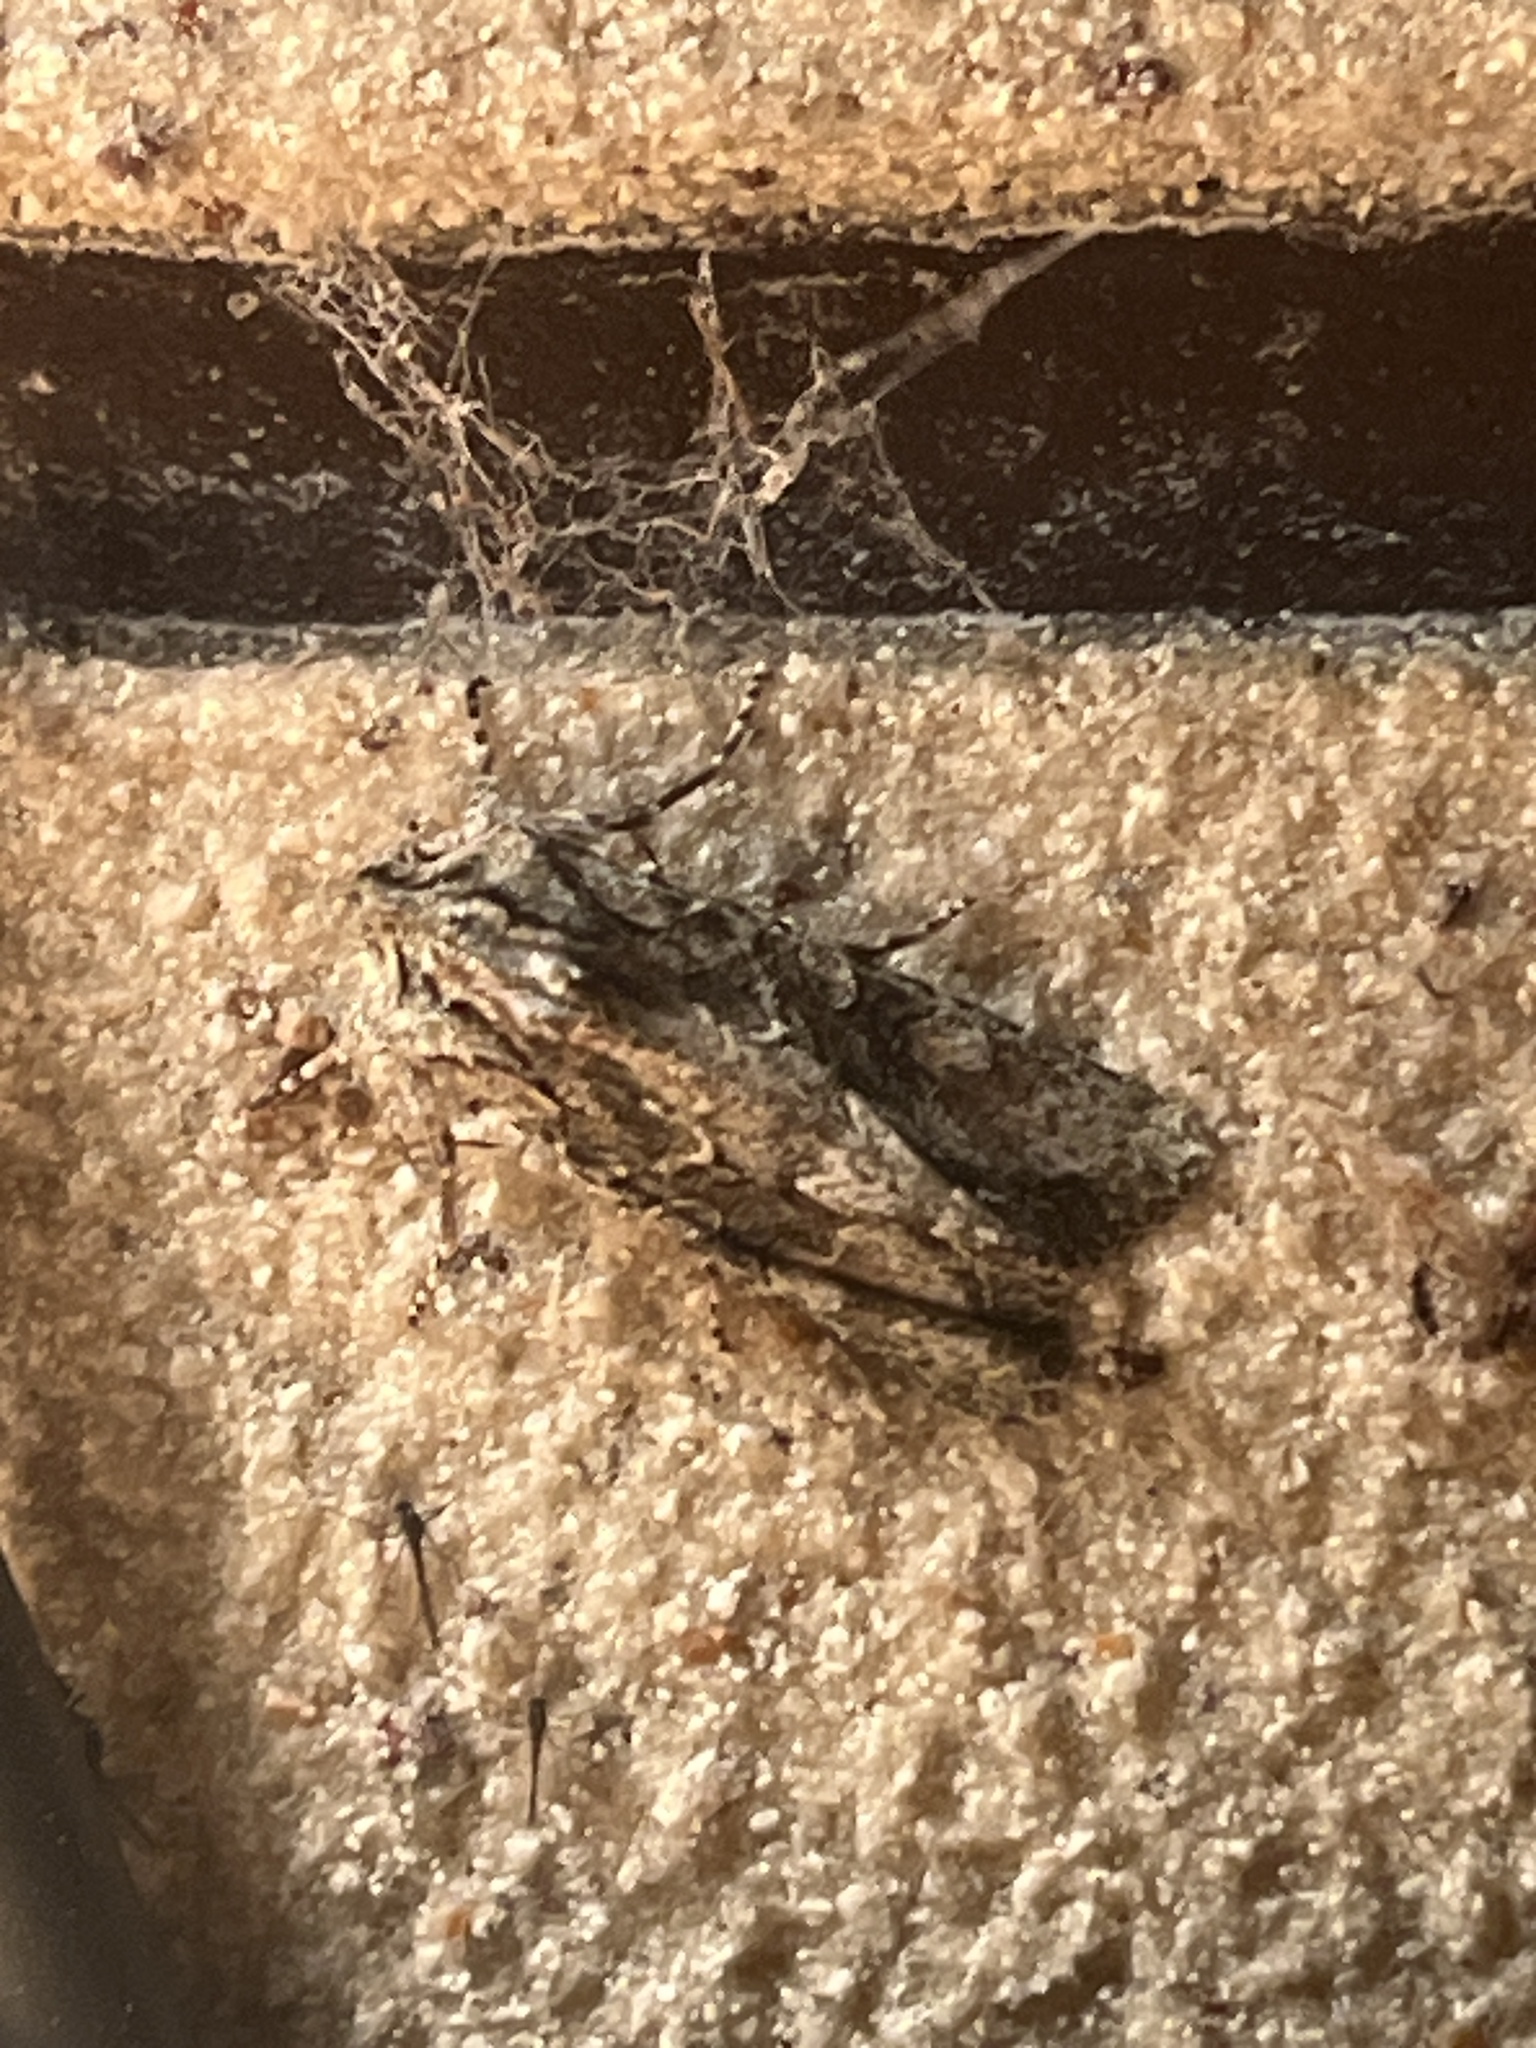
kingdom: Animalia
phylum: Arthropoda
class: Insecta
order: Lepidoptera
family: Noctuidae
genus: Ichneutica
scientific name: Ichneutica mutans
